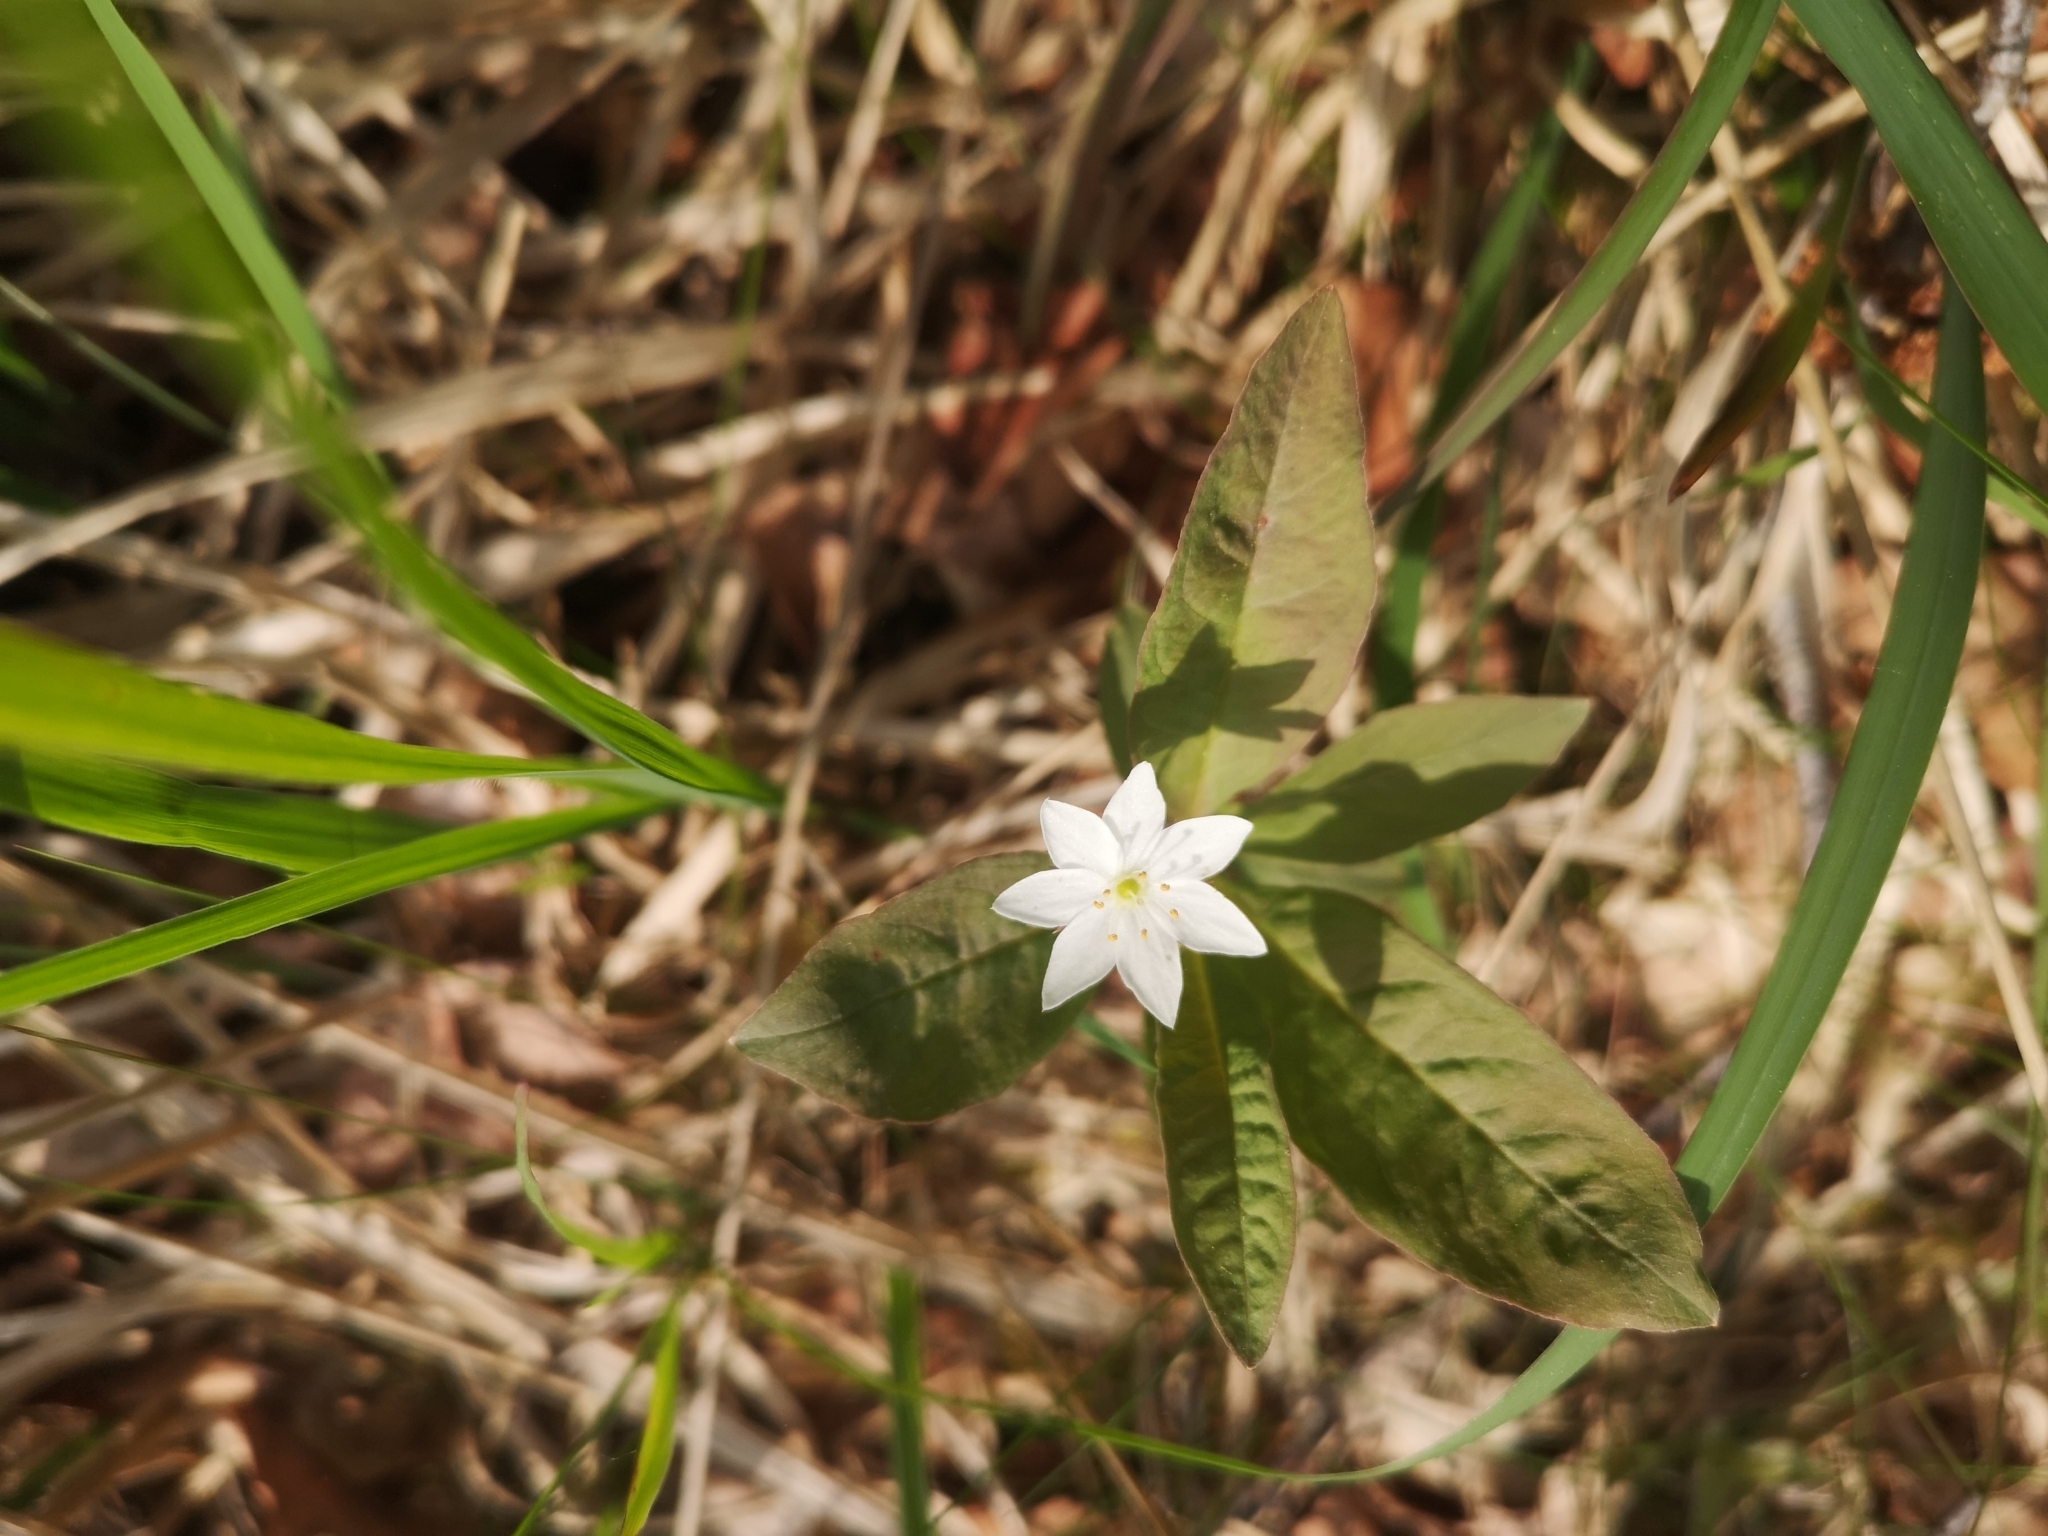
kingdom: Plantae
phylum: Tracheophyta
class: Magnoliopsida
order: Ericales
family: Primulaceae
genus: Lysimachia
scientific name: Lysimachia europaea
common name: Arctic starflower
